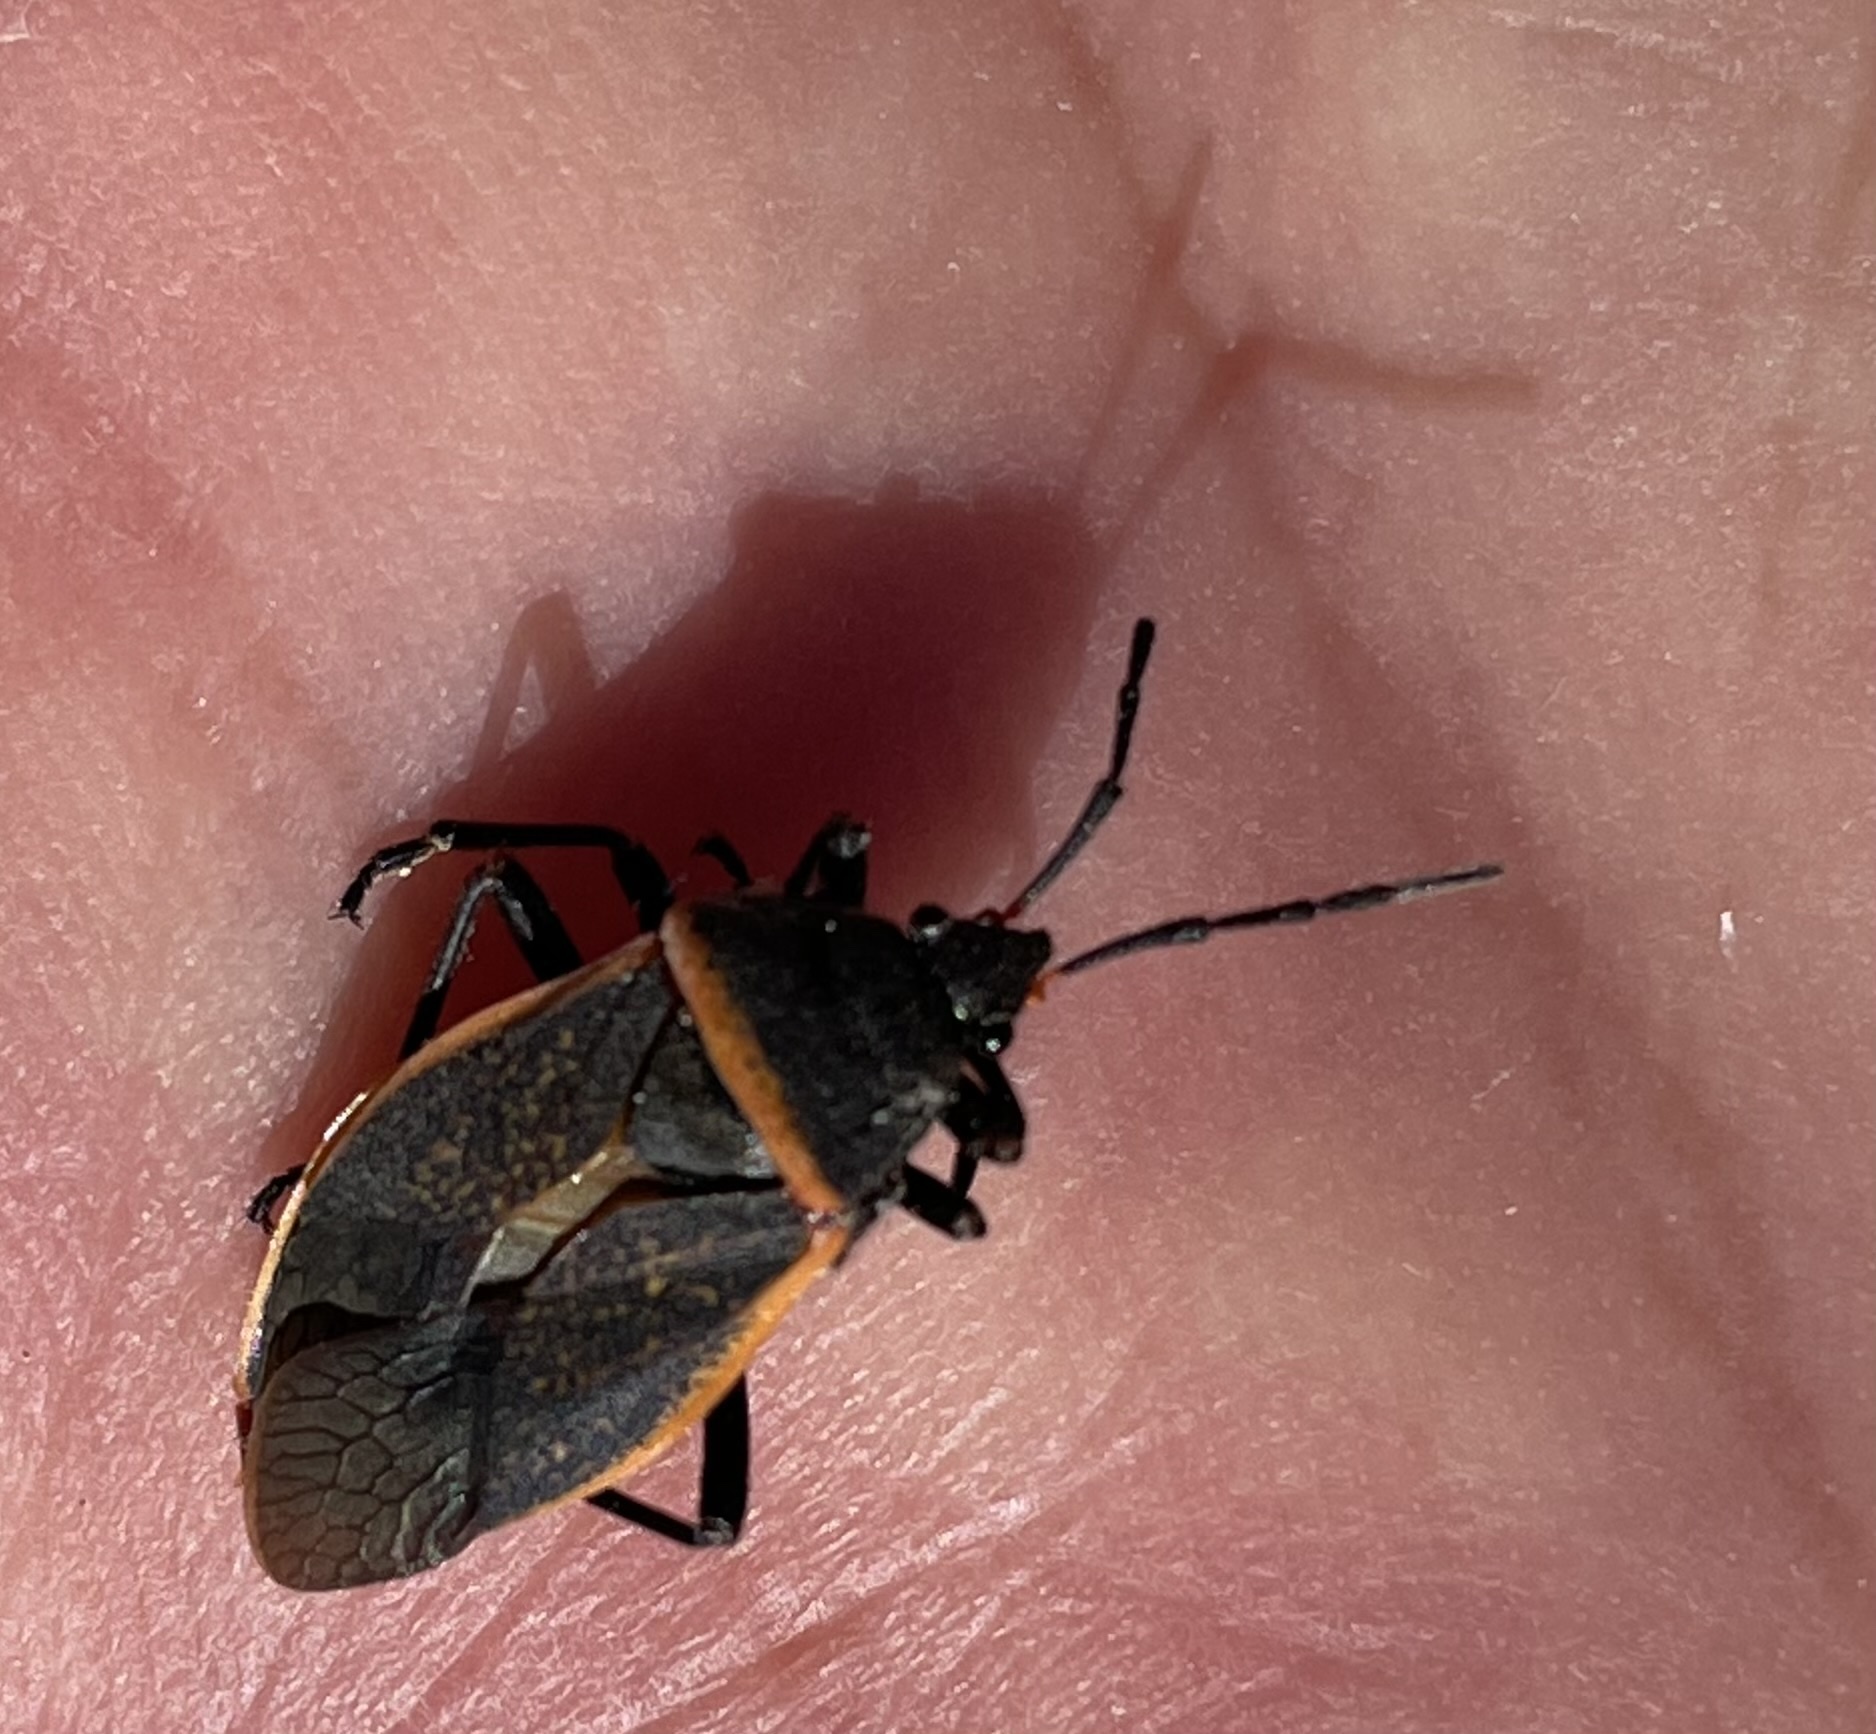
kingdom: Animalia
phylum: Arthropoda
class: Insecta
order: Hemiptera
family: Largidae
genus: Largus
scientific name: Largus californicus
